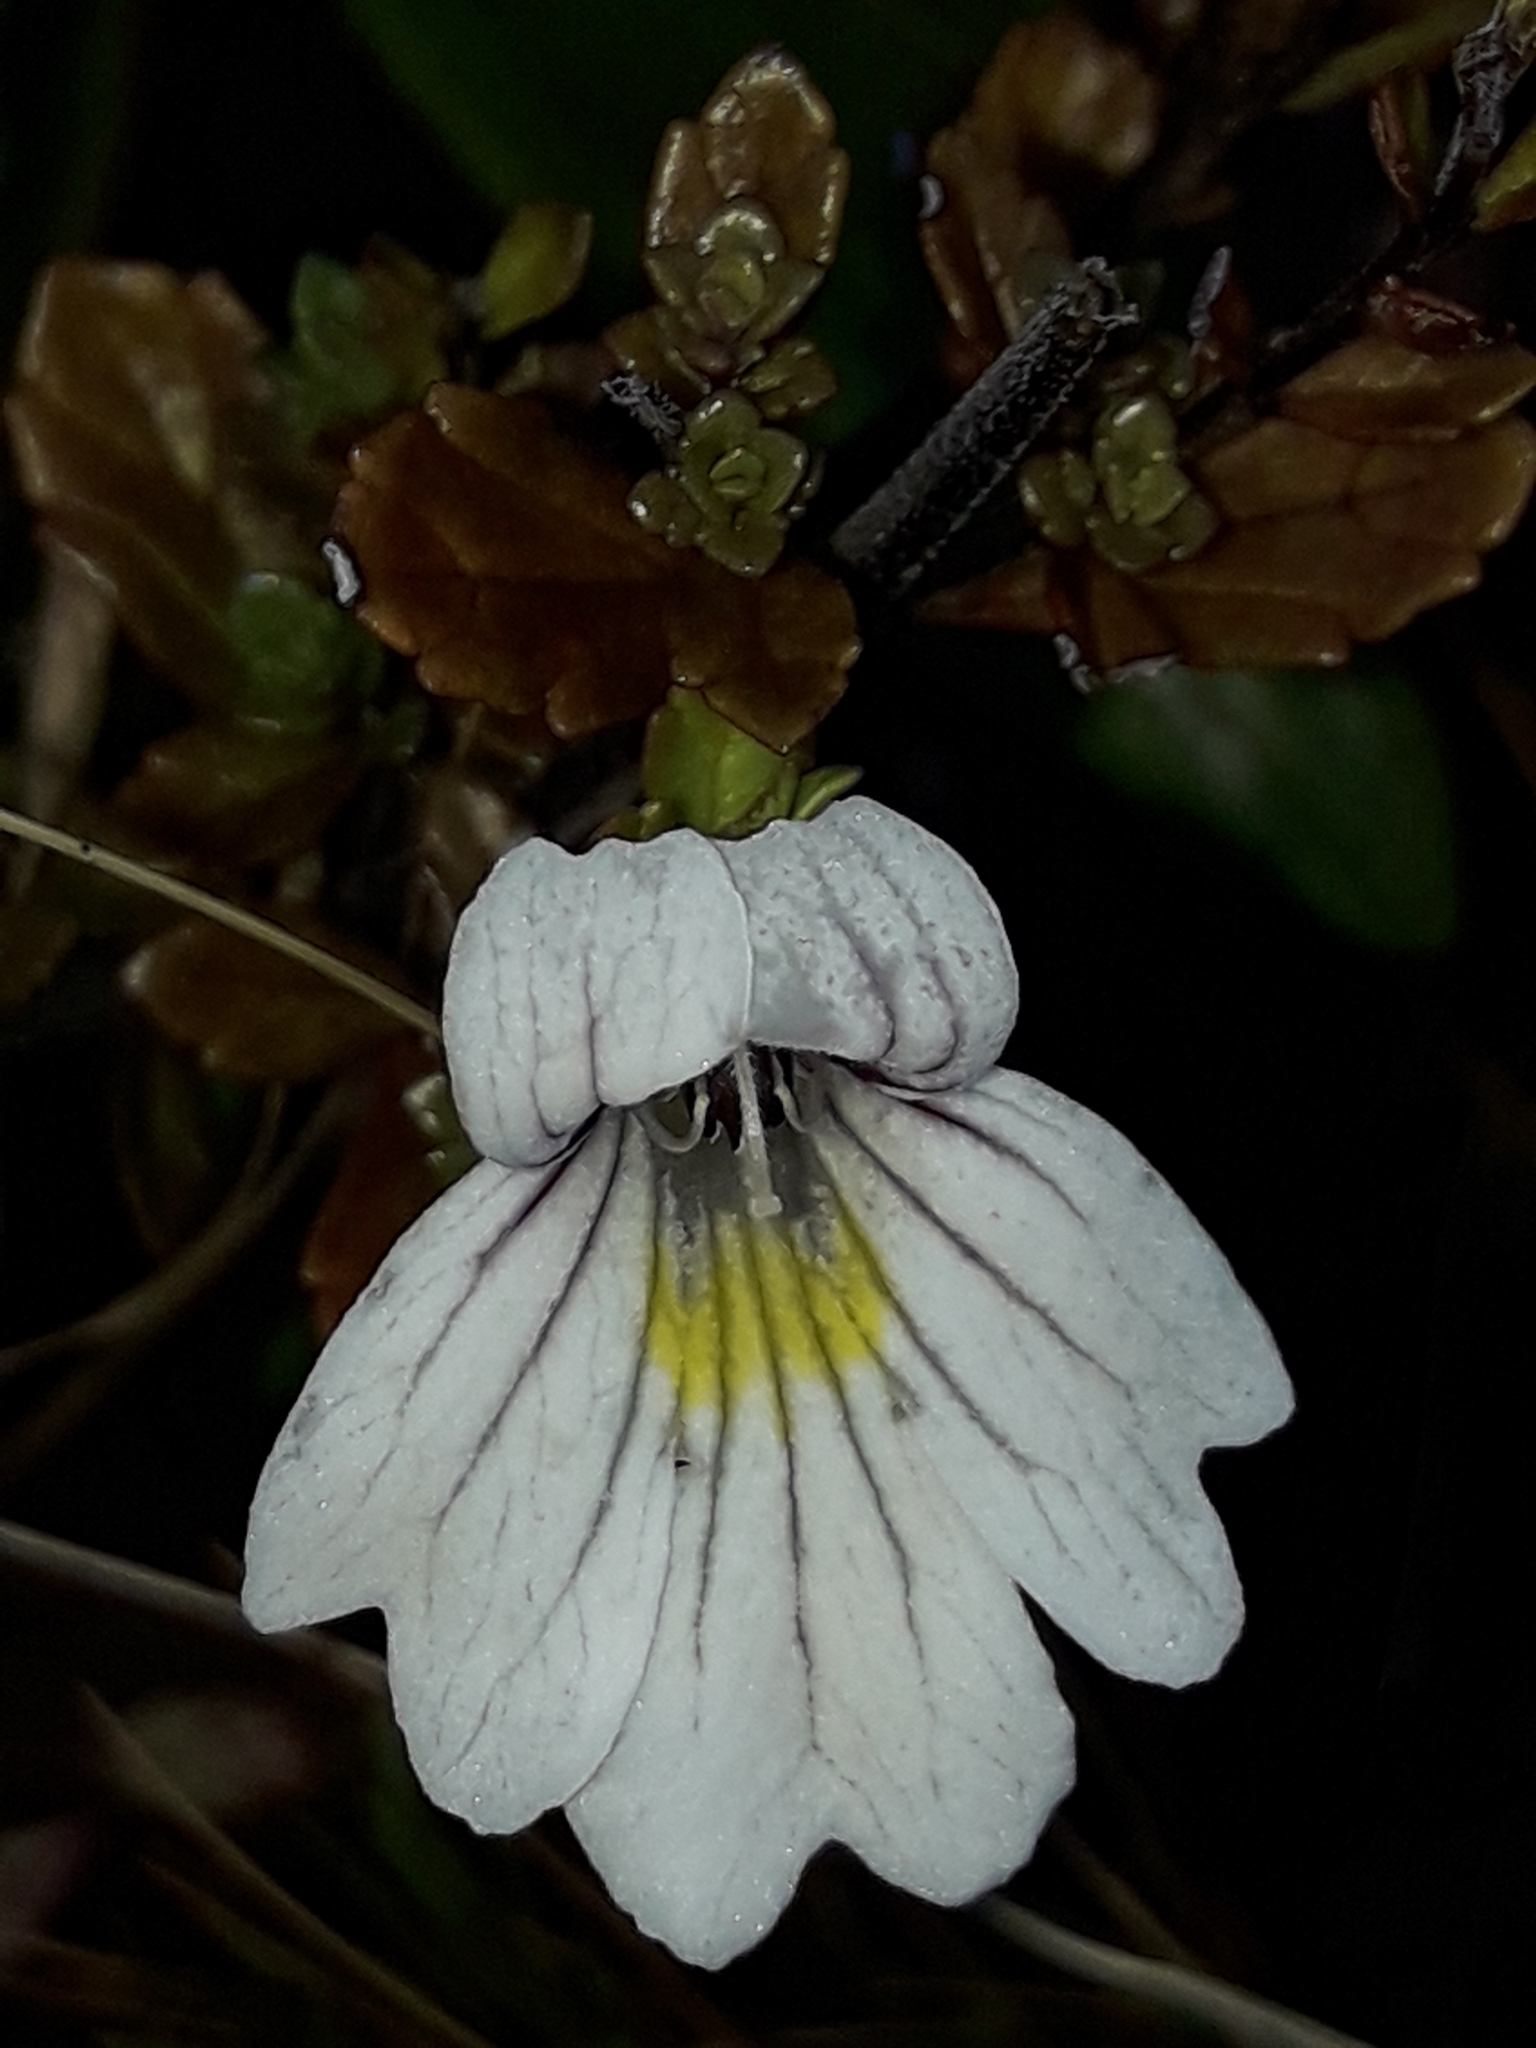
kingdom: Plantae
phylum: Tracheophyta
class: Magnoliopsida
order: Lamiales
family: Orobanchaceae
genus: Euphrasia
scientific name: Euphrasia cuneata
